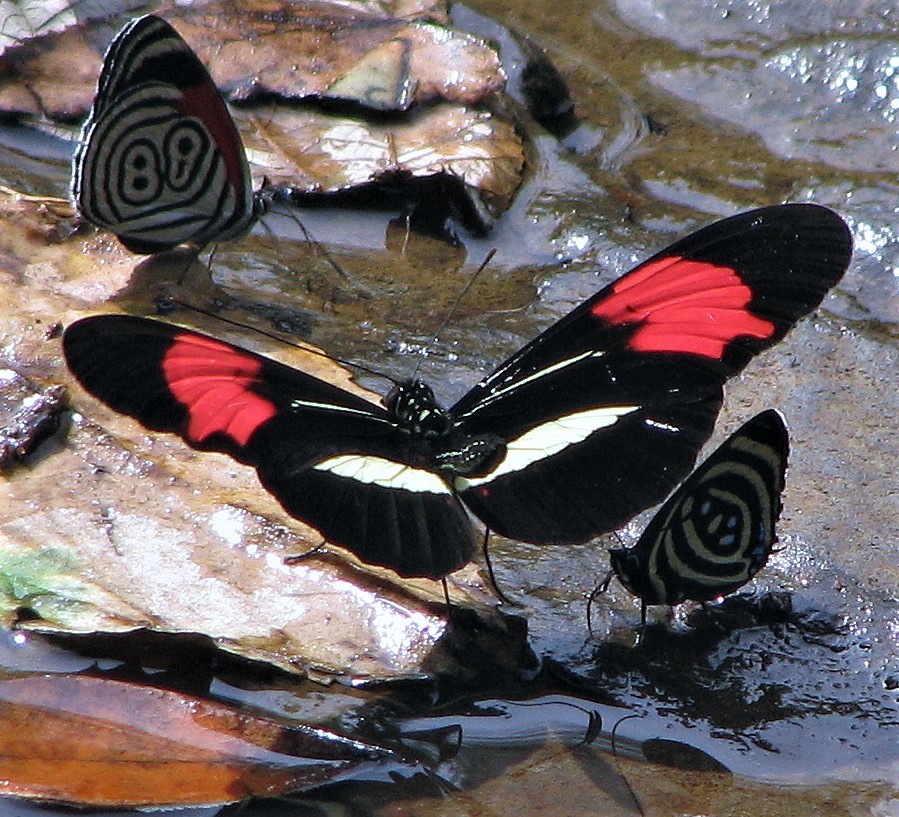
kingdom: Animalia
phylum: Arthropoda
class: Insecta
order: Lepidoptera
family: Nymphalidae
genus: Heliconius
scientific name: Heliconius erato
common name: Common patch longwing
